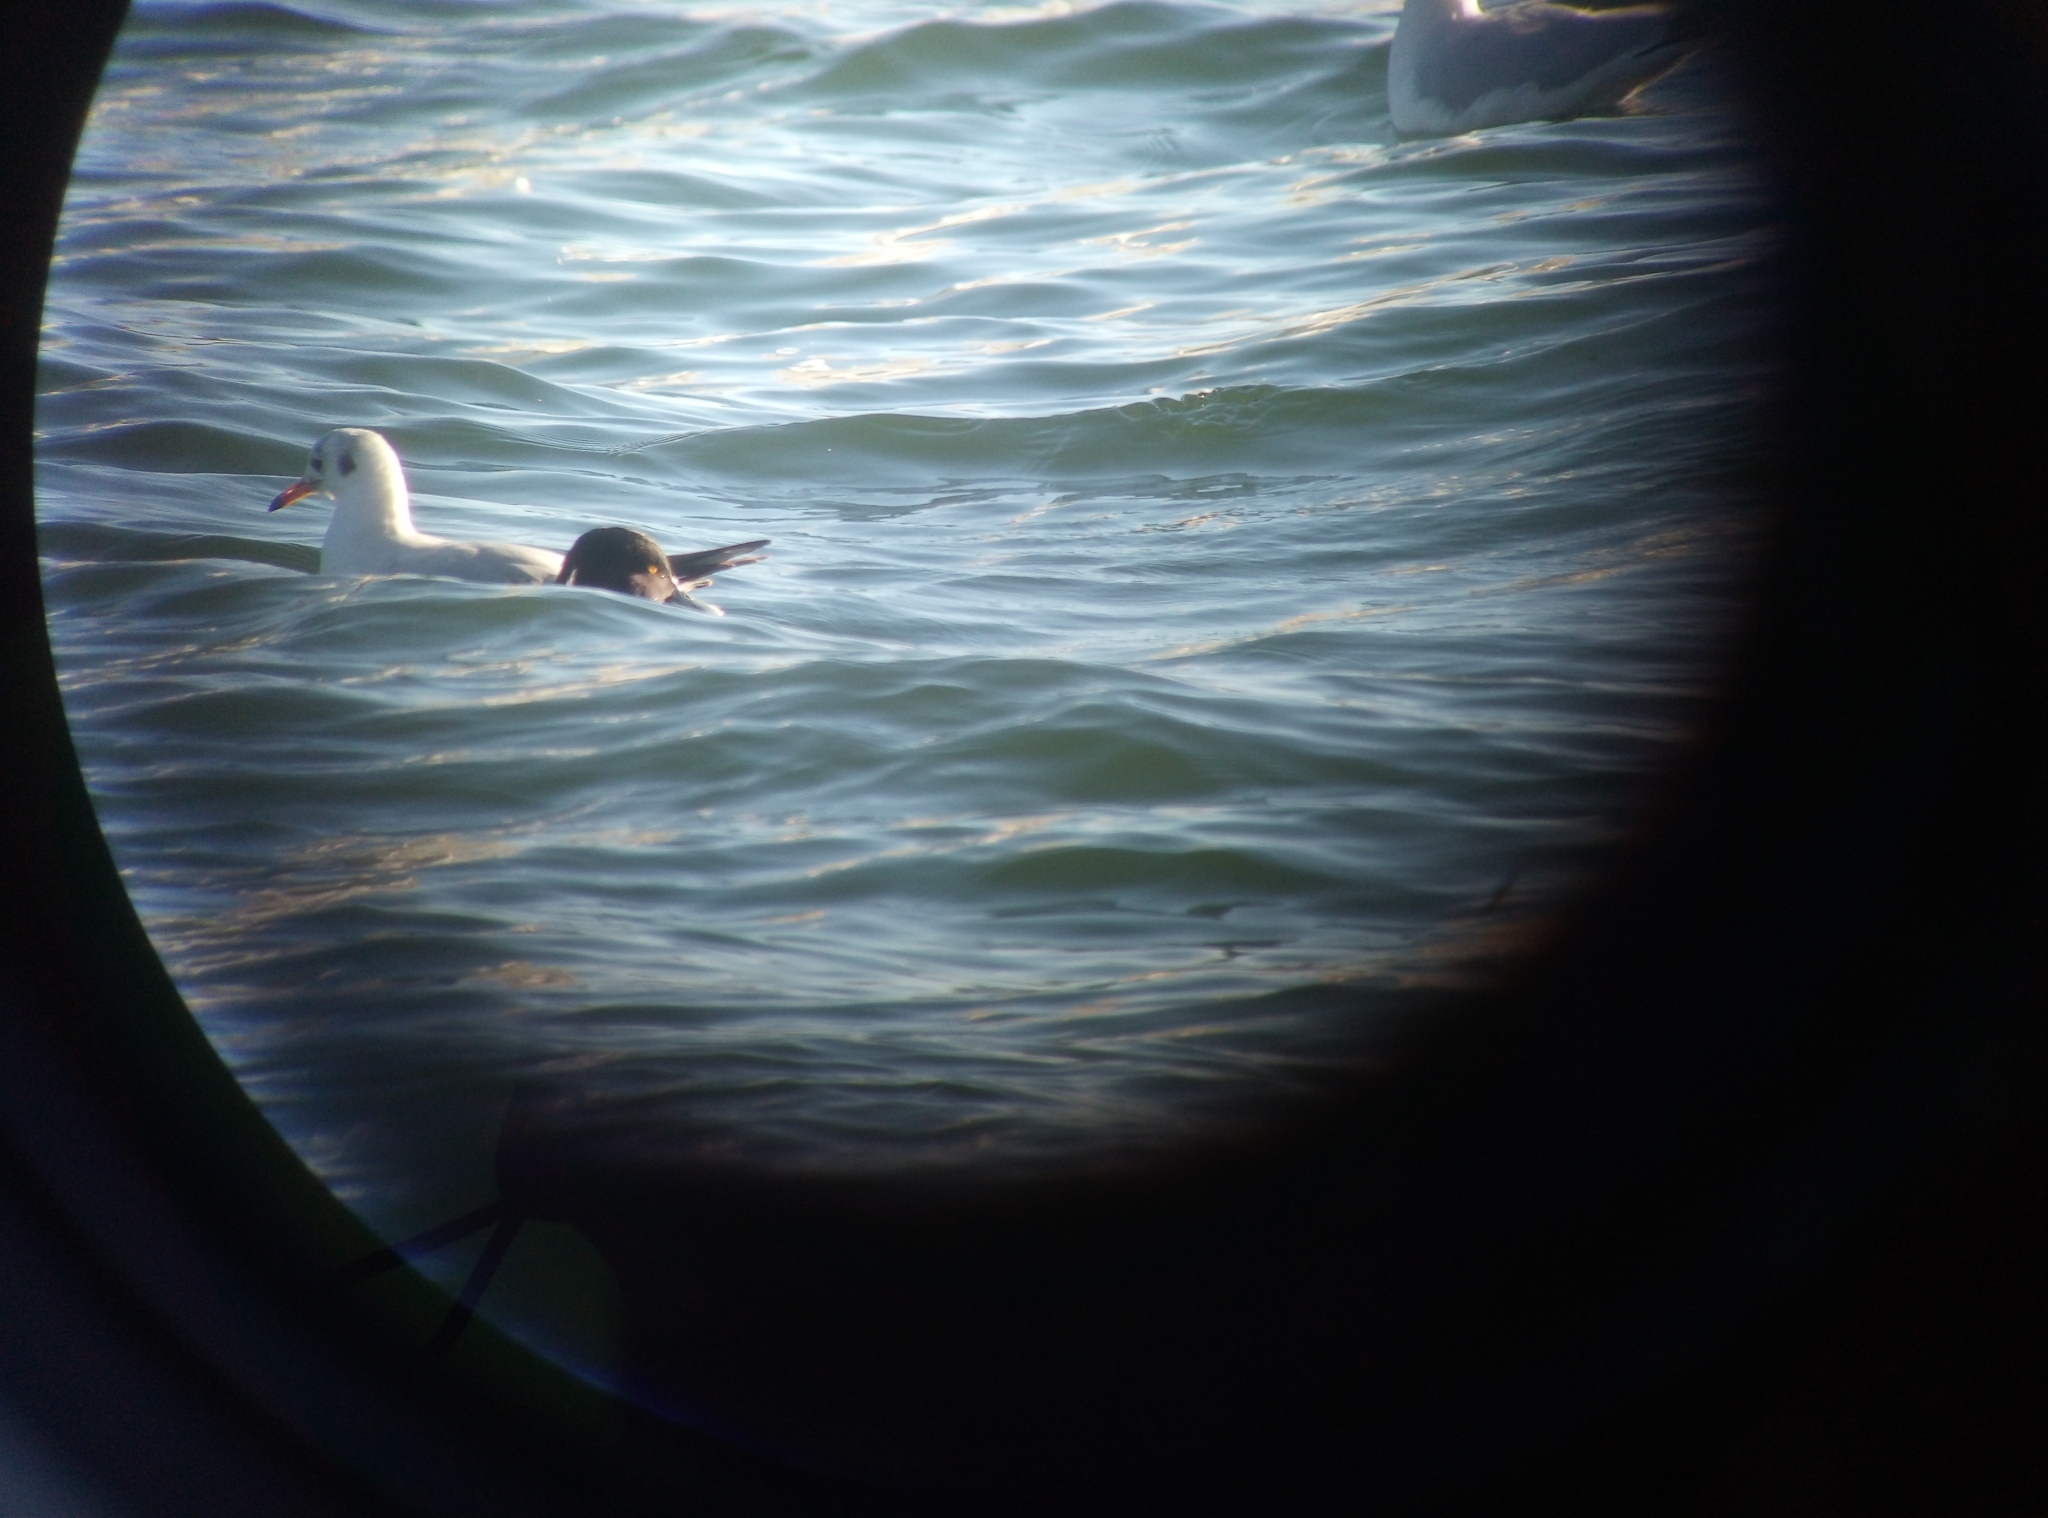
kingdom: Animalia
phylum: Chordata
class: Aves
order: Anseriformes
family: Anatidae
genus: Aythya
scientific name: Aythya fuligula
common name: Tufted duck
